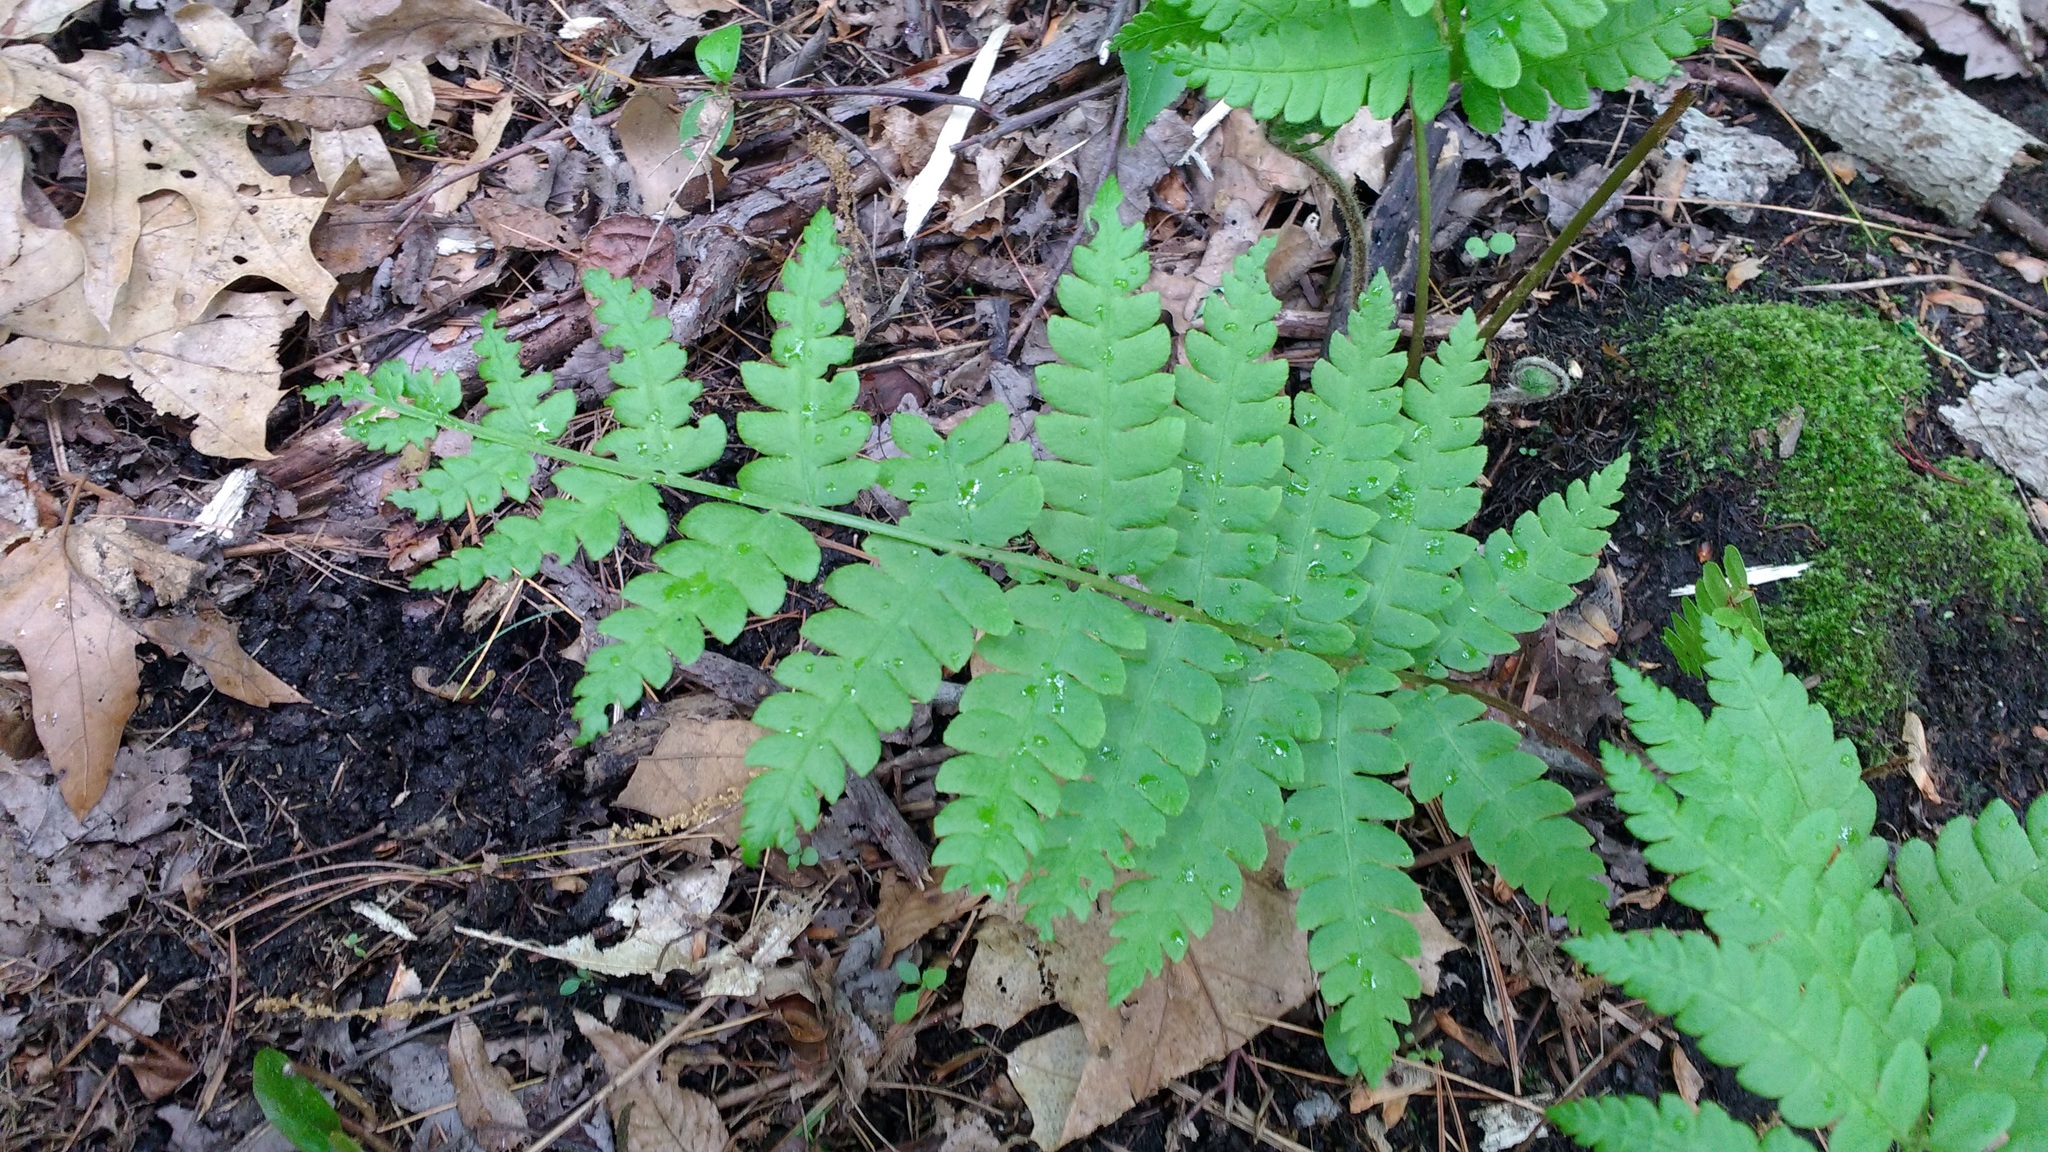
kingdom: Plantae
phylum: Tracheophyta
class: Polypodiopsida
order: Osmundales
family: Osmundaceae
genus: Osmundastrum
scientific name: Osmundastrum cinnamomeum
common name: Cinnamon fern
